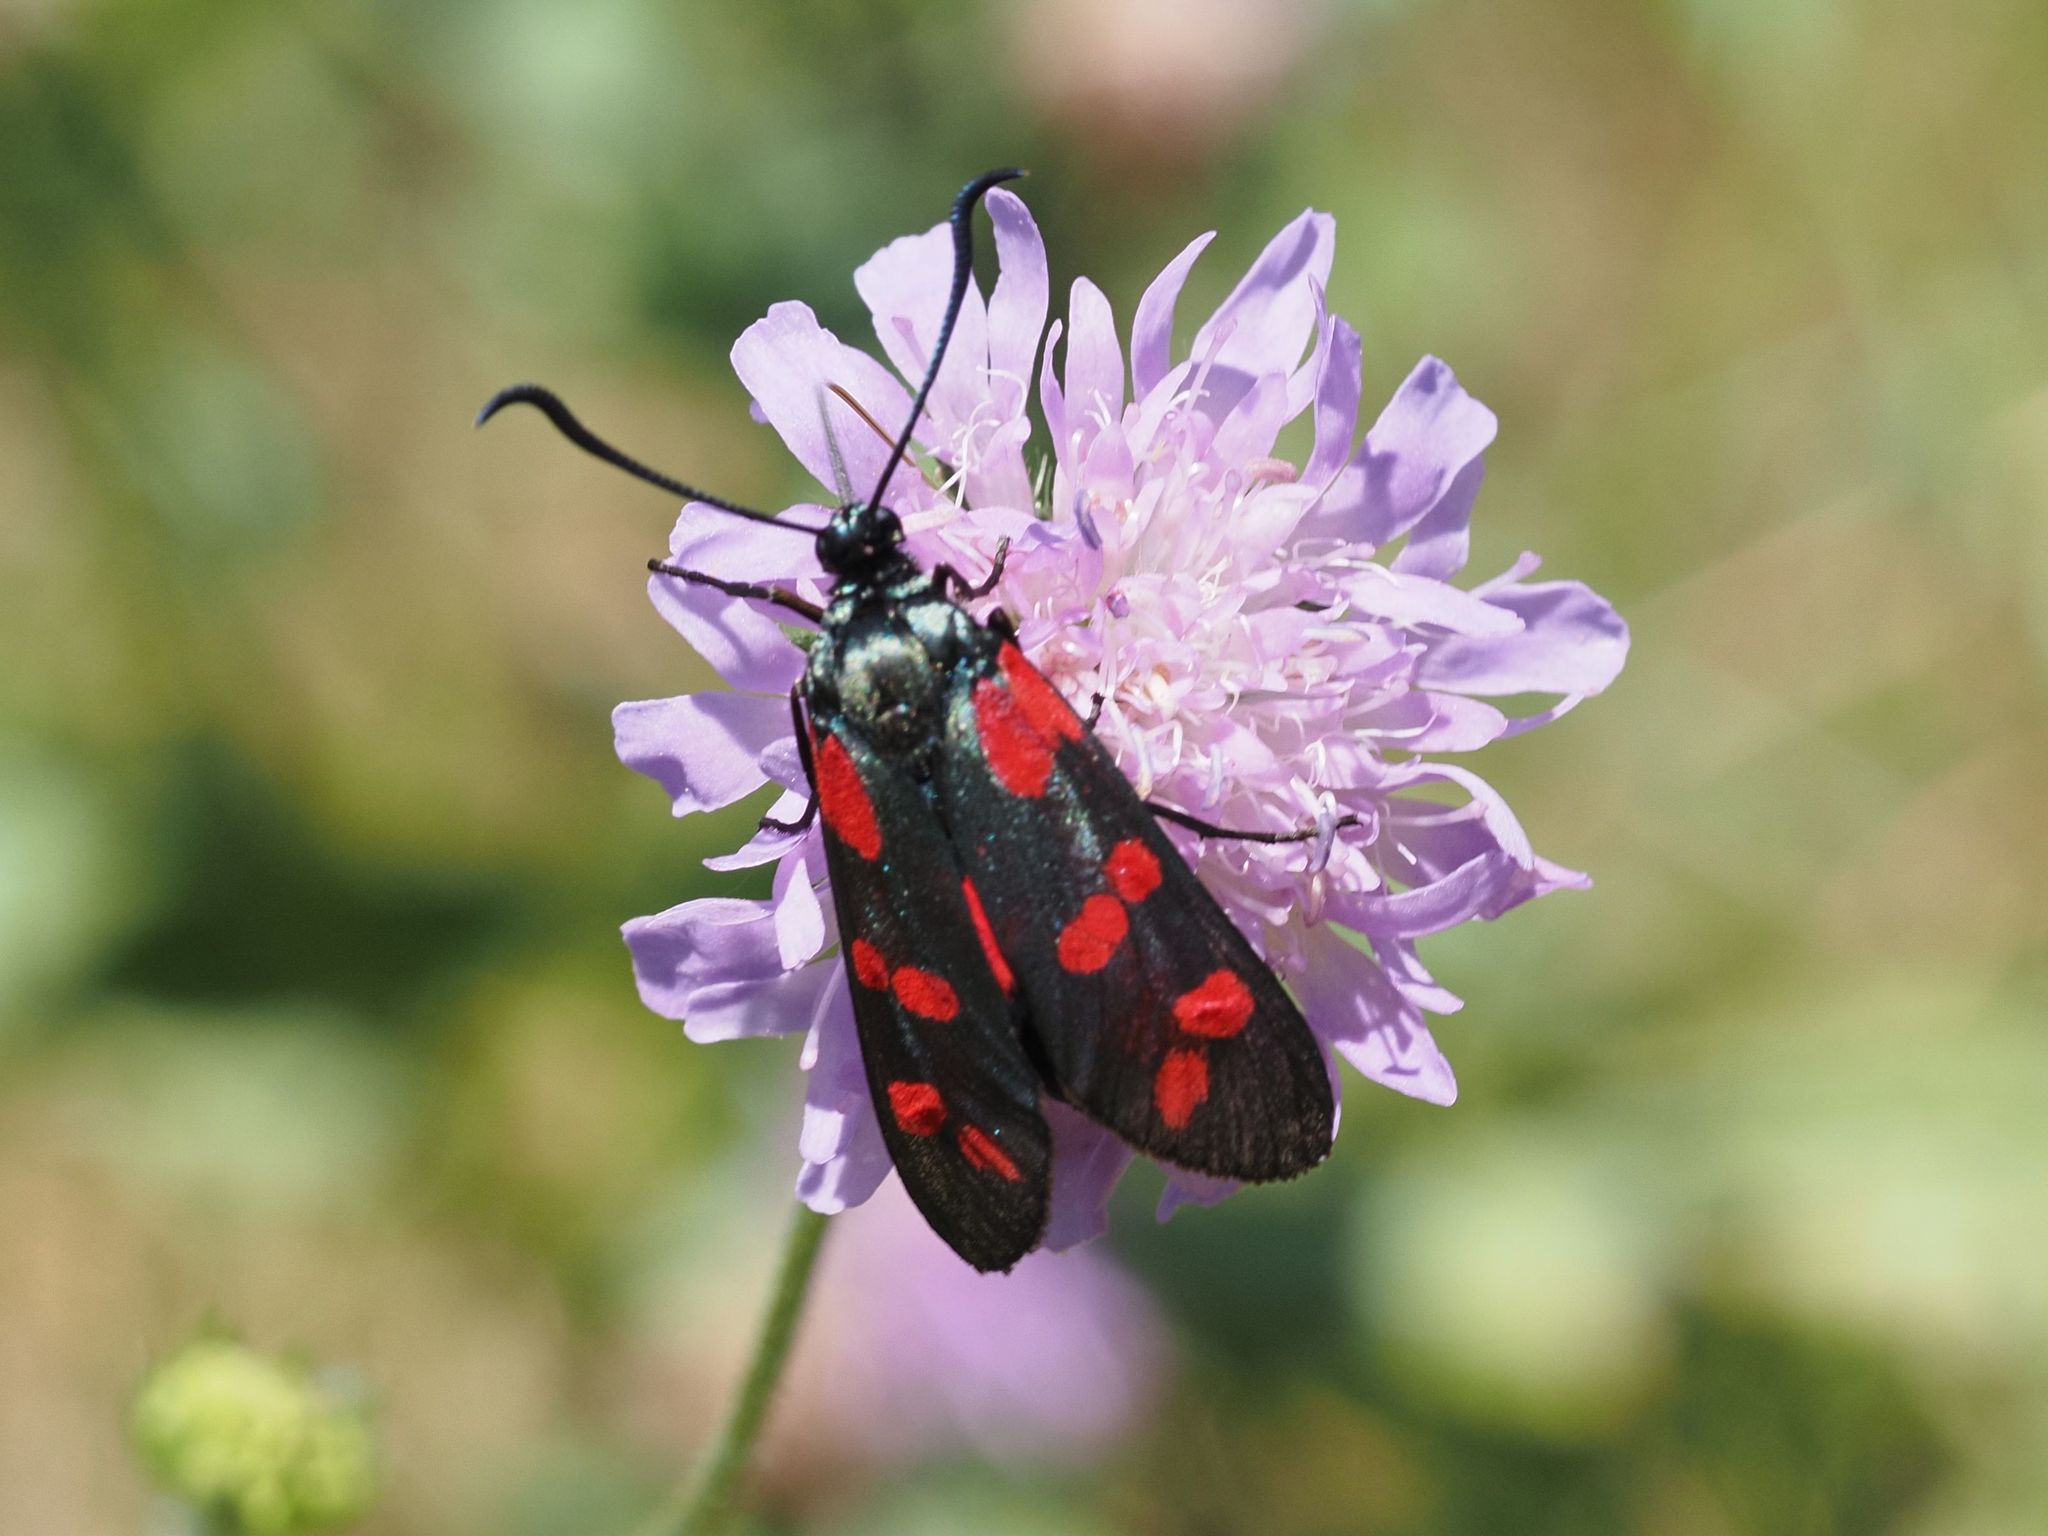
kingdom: Animalia
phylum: Arthropoda
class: Insecta
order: Lepidoptera
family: Zygaenidae
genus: Zygaena
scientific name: Zygaena filipendulae
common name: Six-spot burnet
